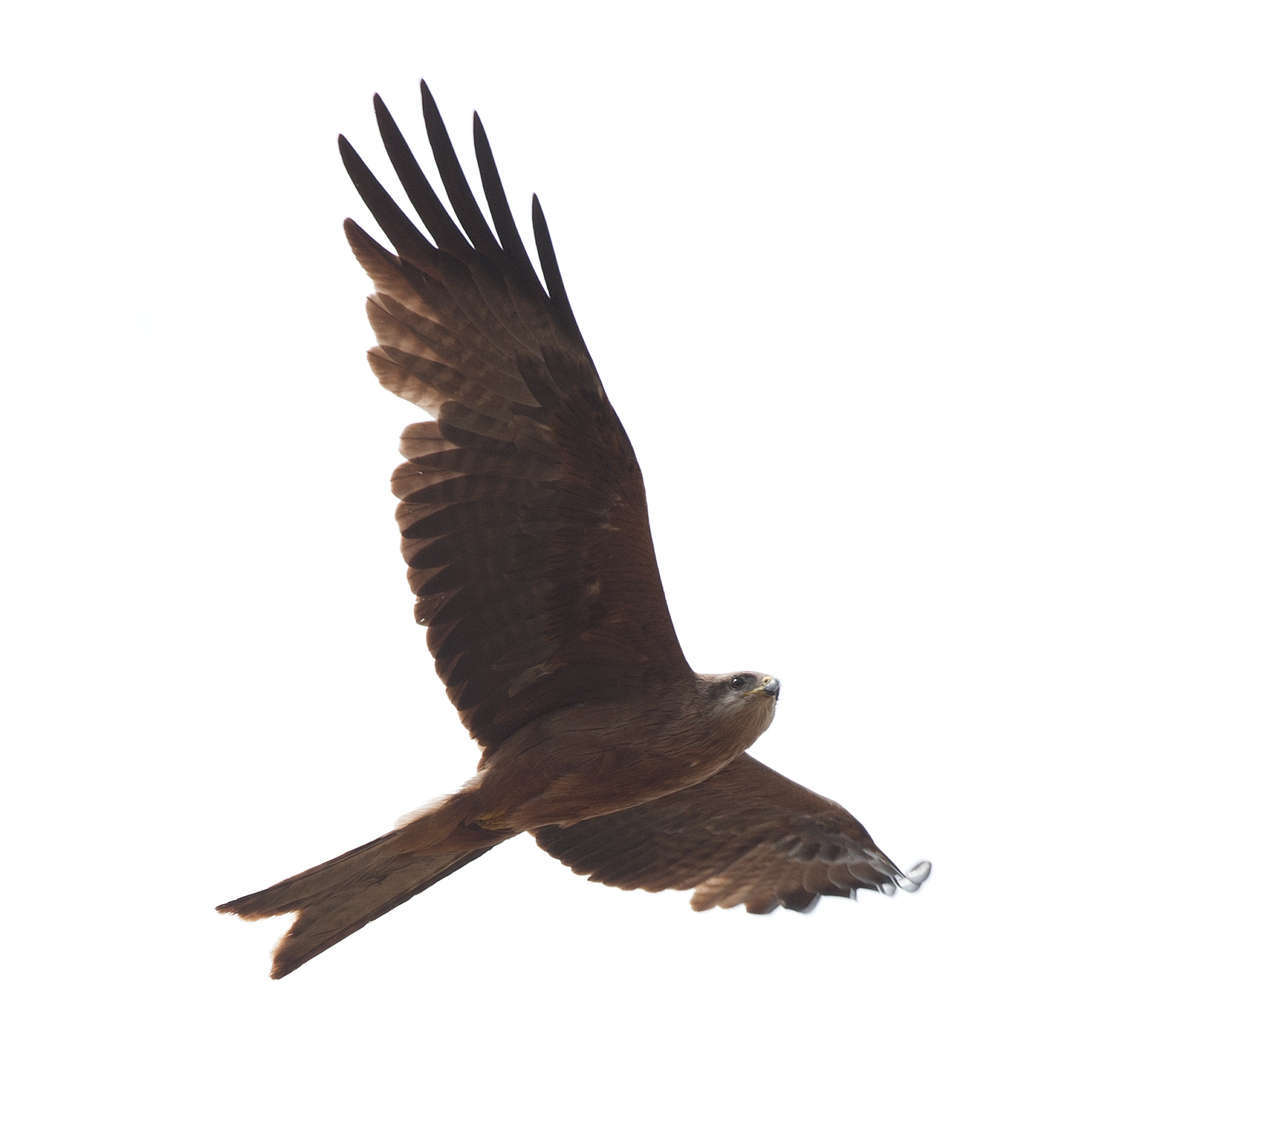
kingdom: Animalia
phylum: Chordata
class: Aves
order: Accipitriformes
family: Accipitridae
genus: Milvus
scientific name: Milvus migrans
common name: Black kite
